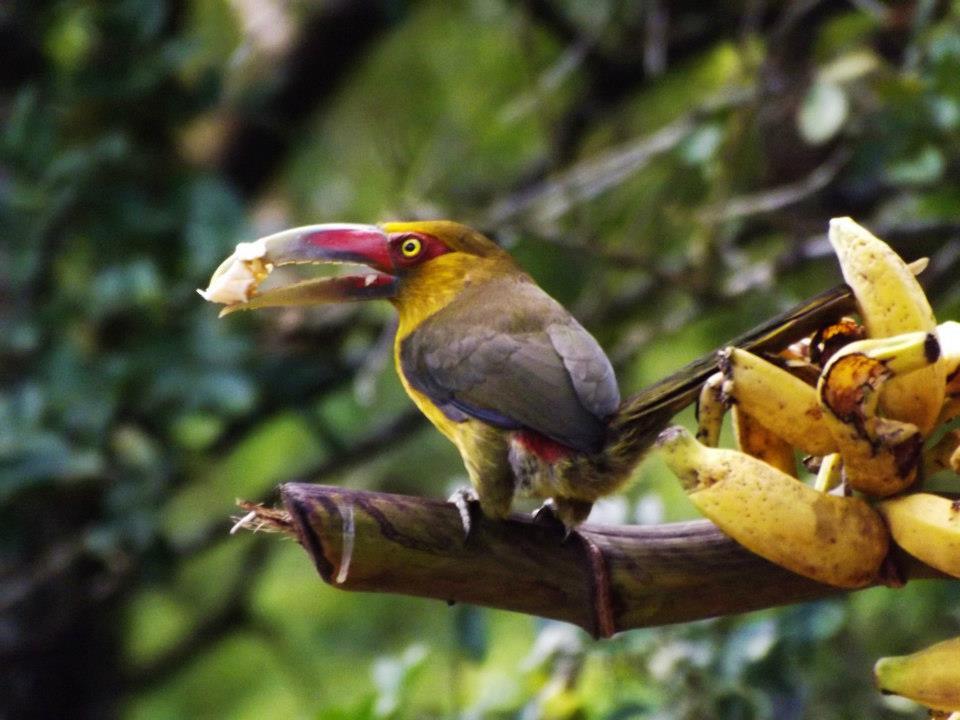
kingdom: Animalia
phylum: Chordata
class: Aves
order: Piciformes
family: Ramphastidae
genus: Pteroglossus
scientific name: Pteroglossus bailloni
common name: Saffron toucanet
